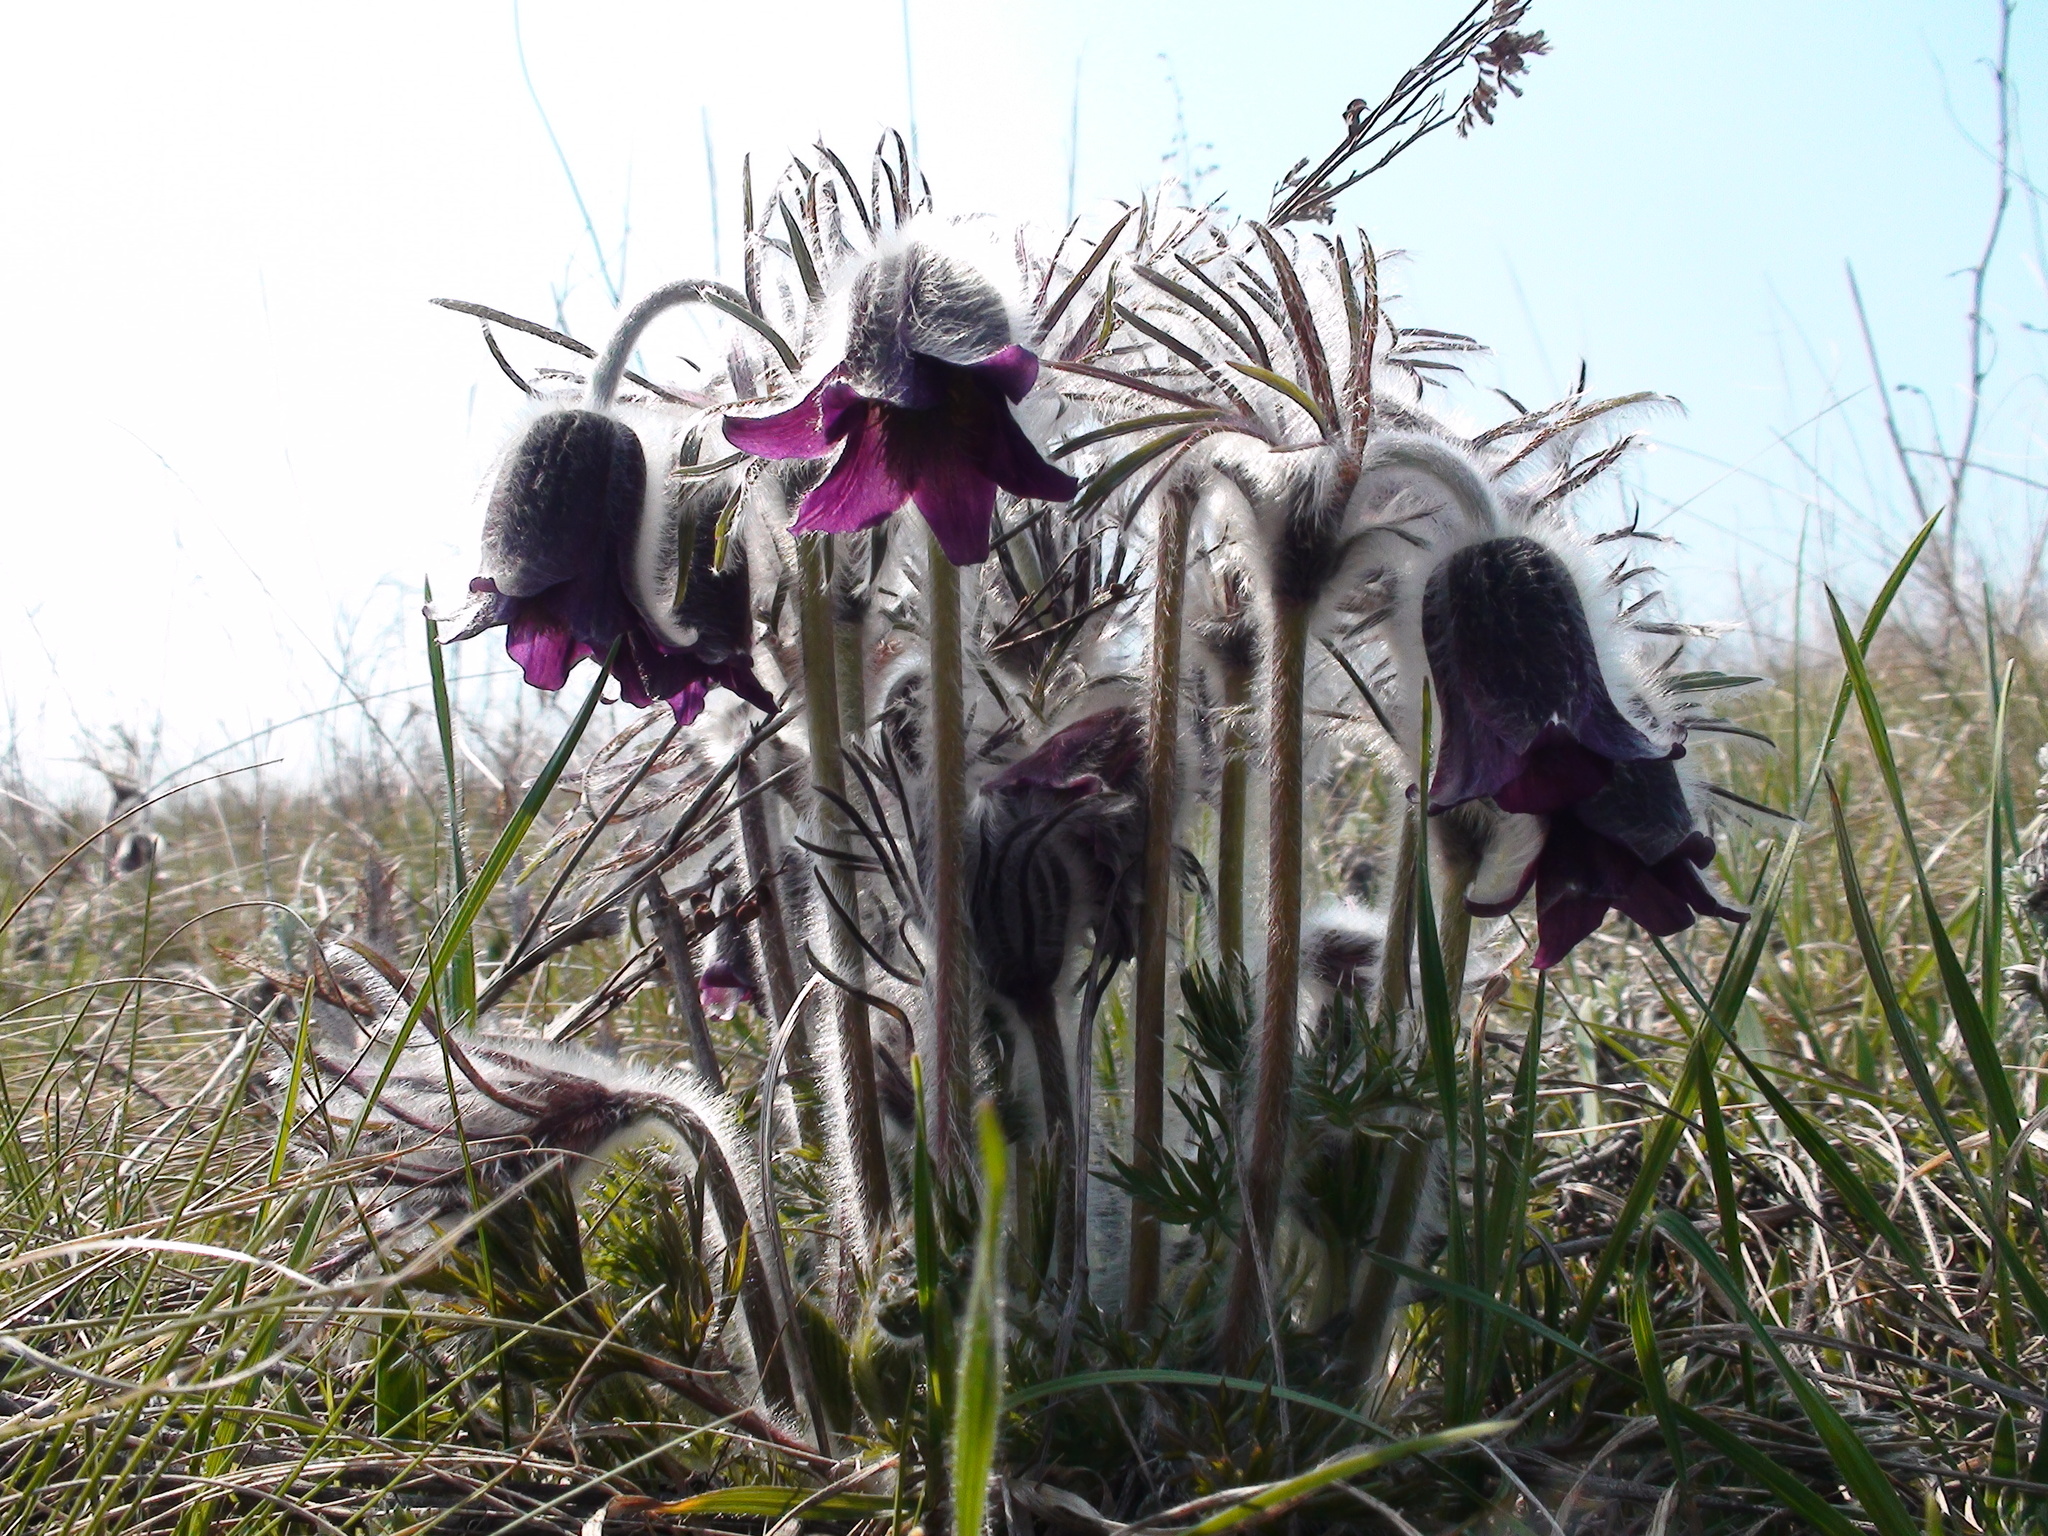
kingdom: Plantae
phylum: Tracheophyta
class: Magnoliopsida
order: Ranunculales
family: Ranunculaceae
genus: Pulsatilla
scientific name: Pulsatilla pratensis
